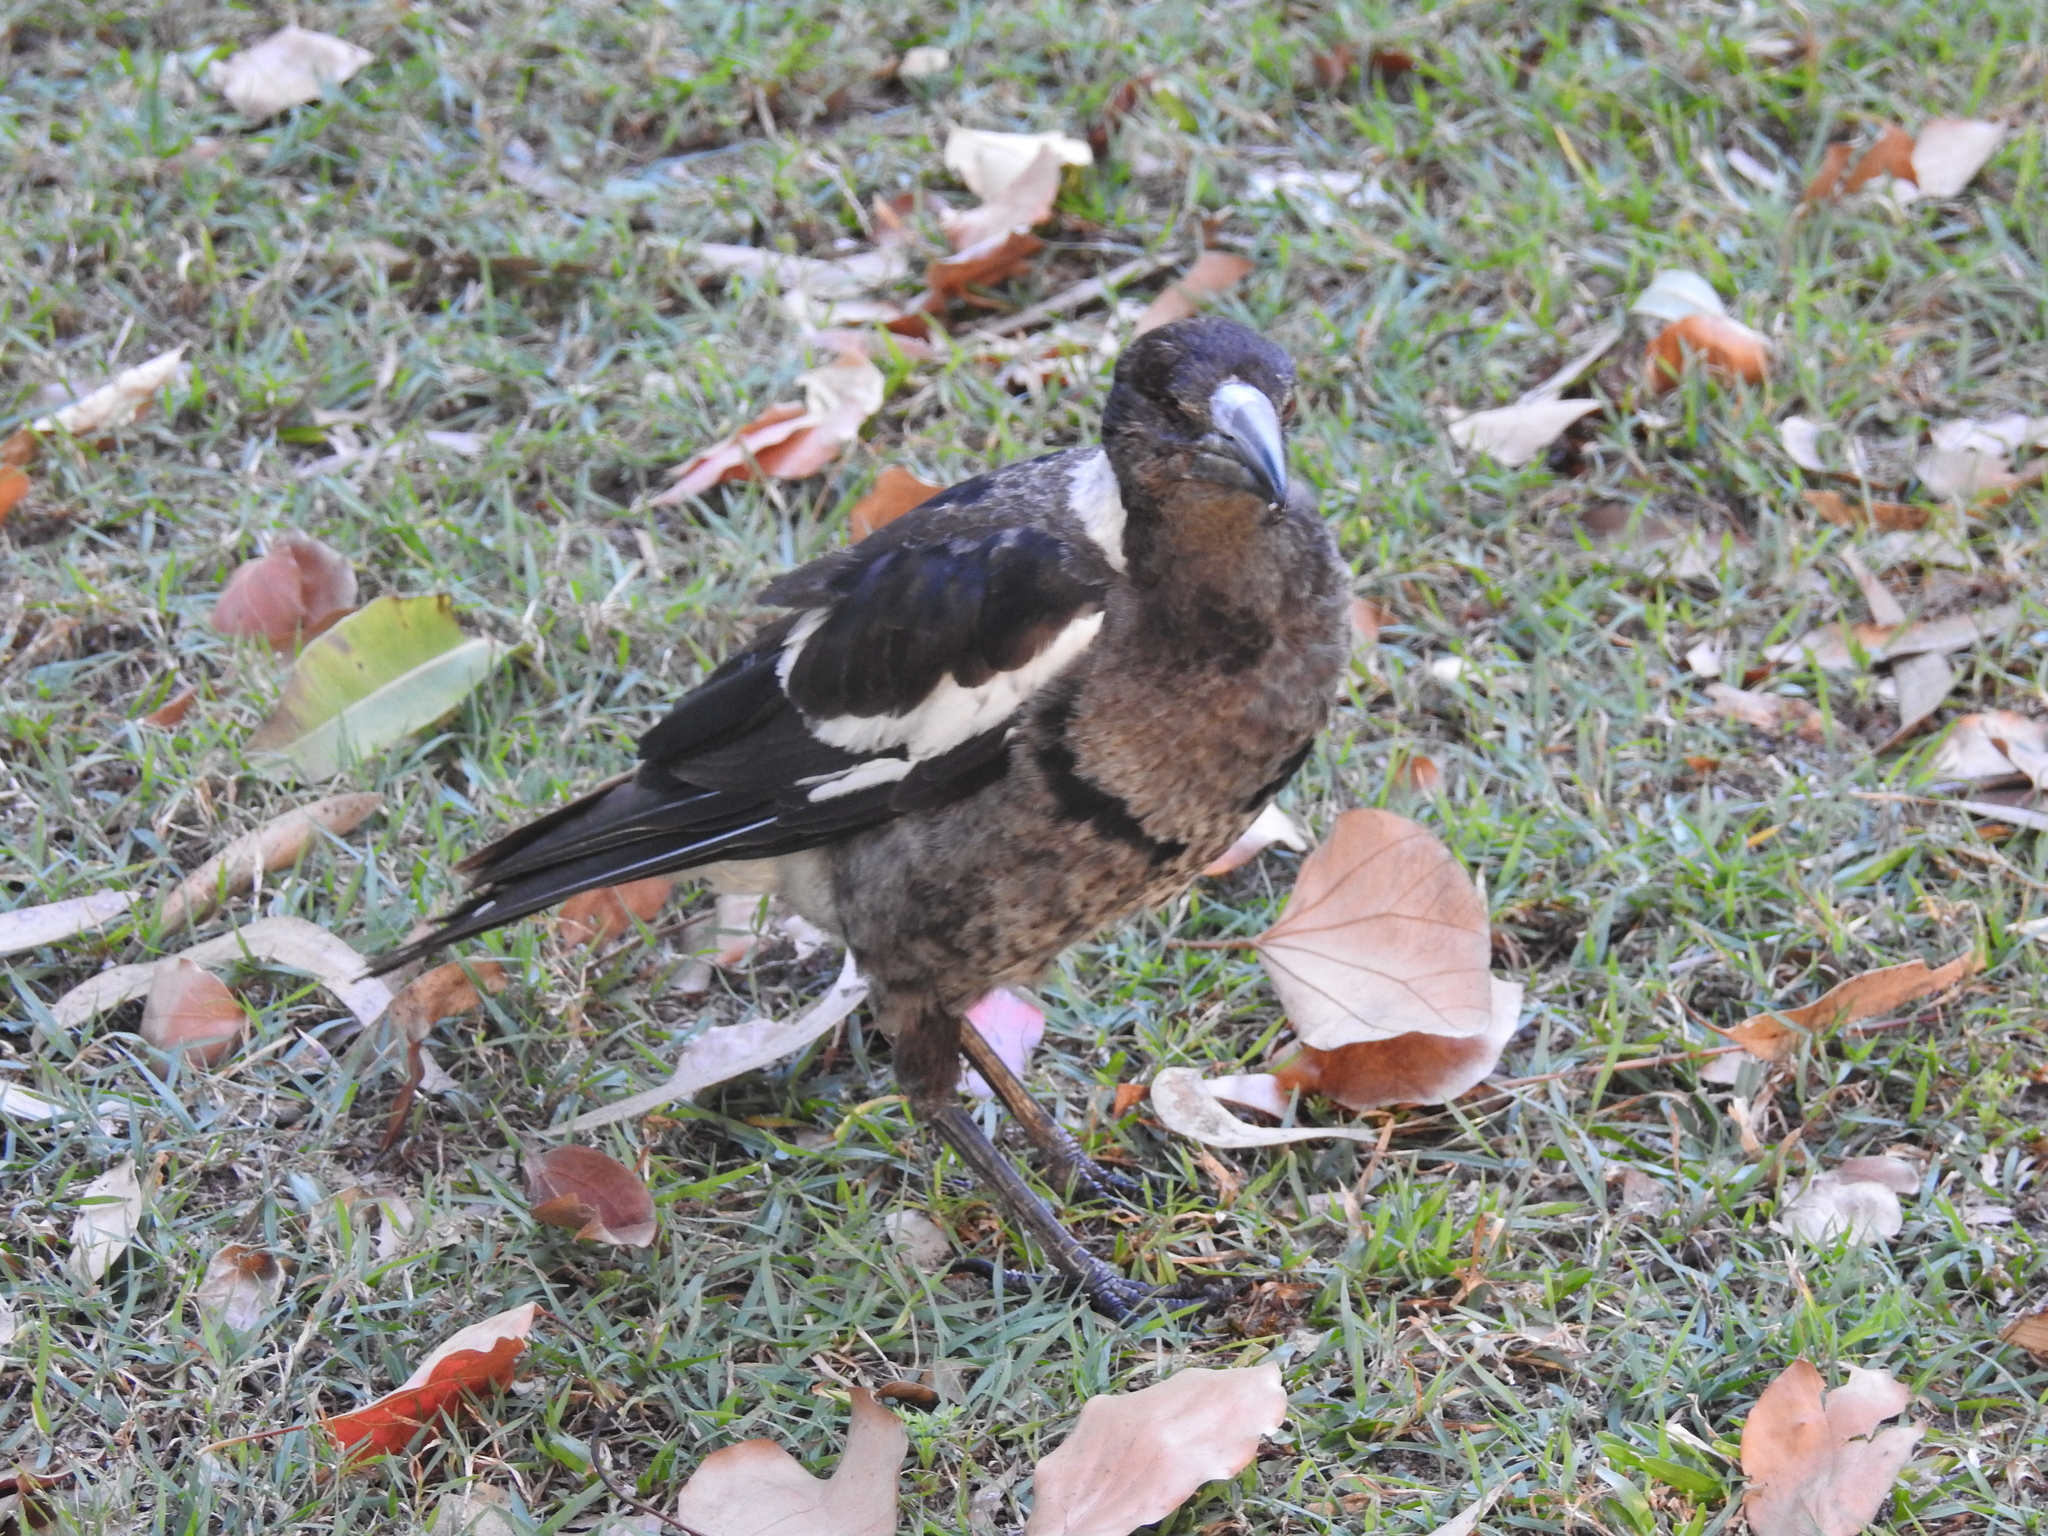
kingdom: Animalia
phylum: Chordata
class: Aves
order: Passeriformes
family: Cracticidae
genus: Gymnorhina
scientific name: Gymnorhina tibicen
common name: Australian magpie
